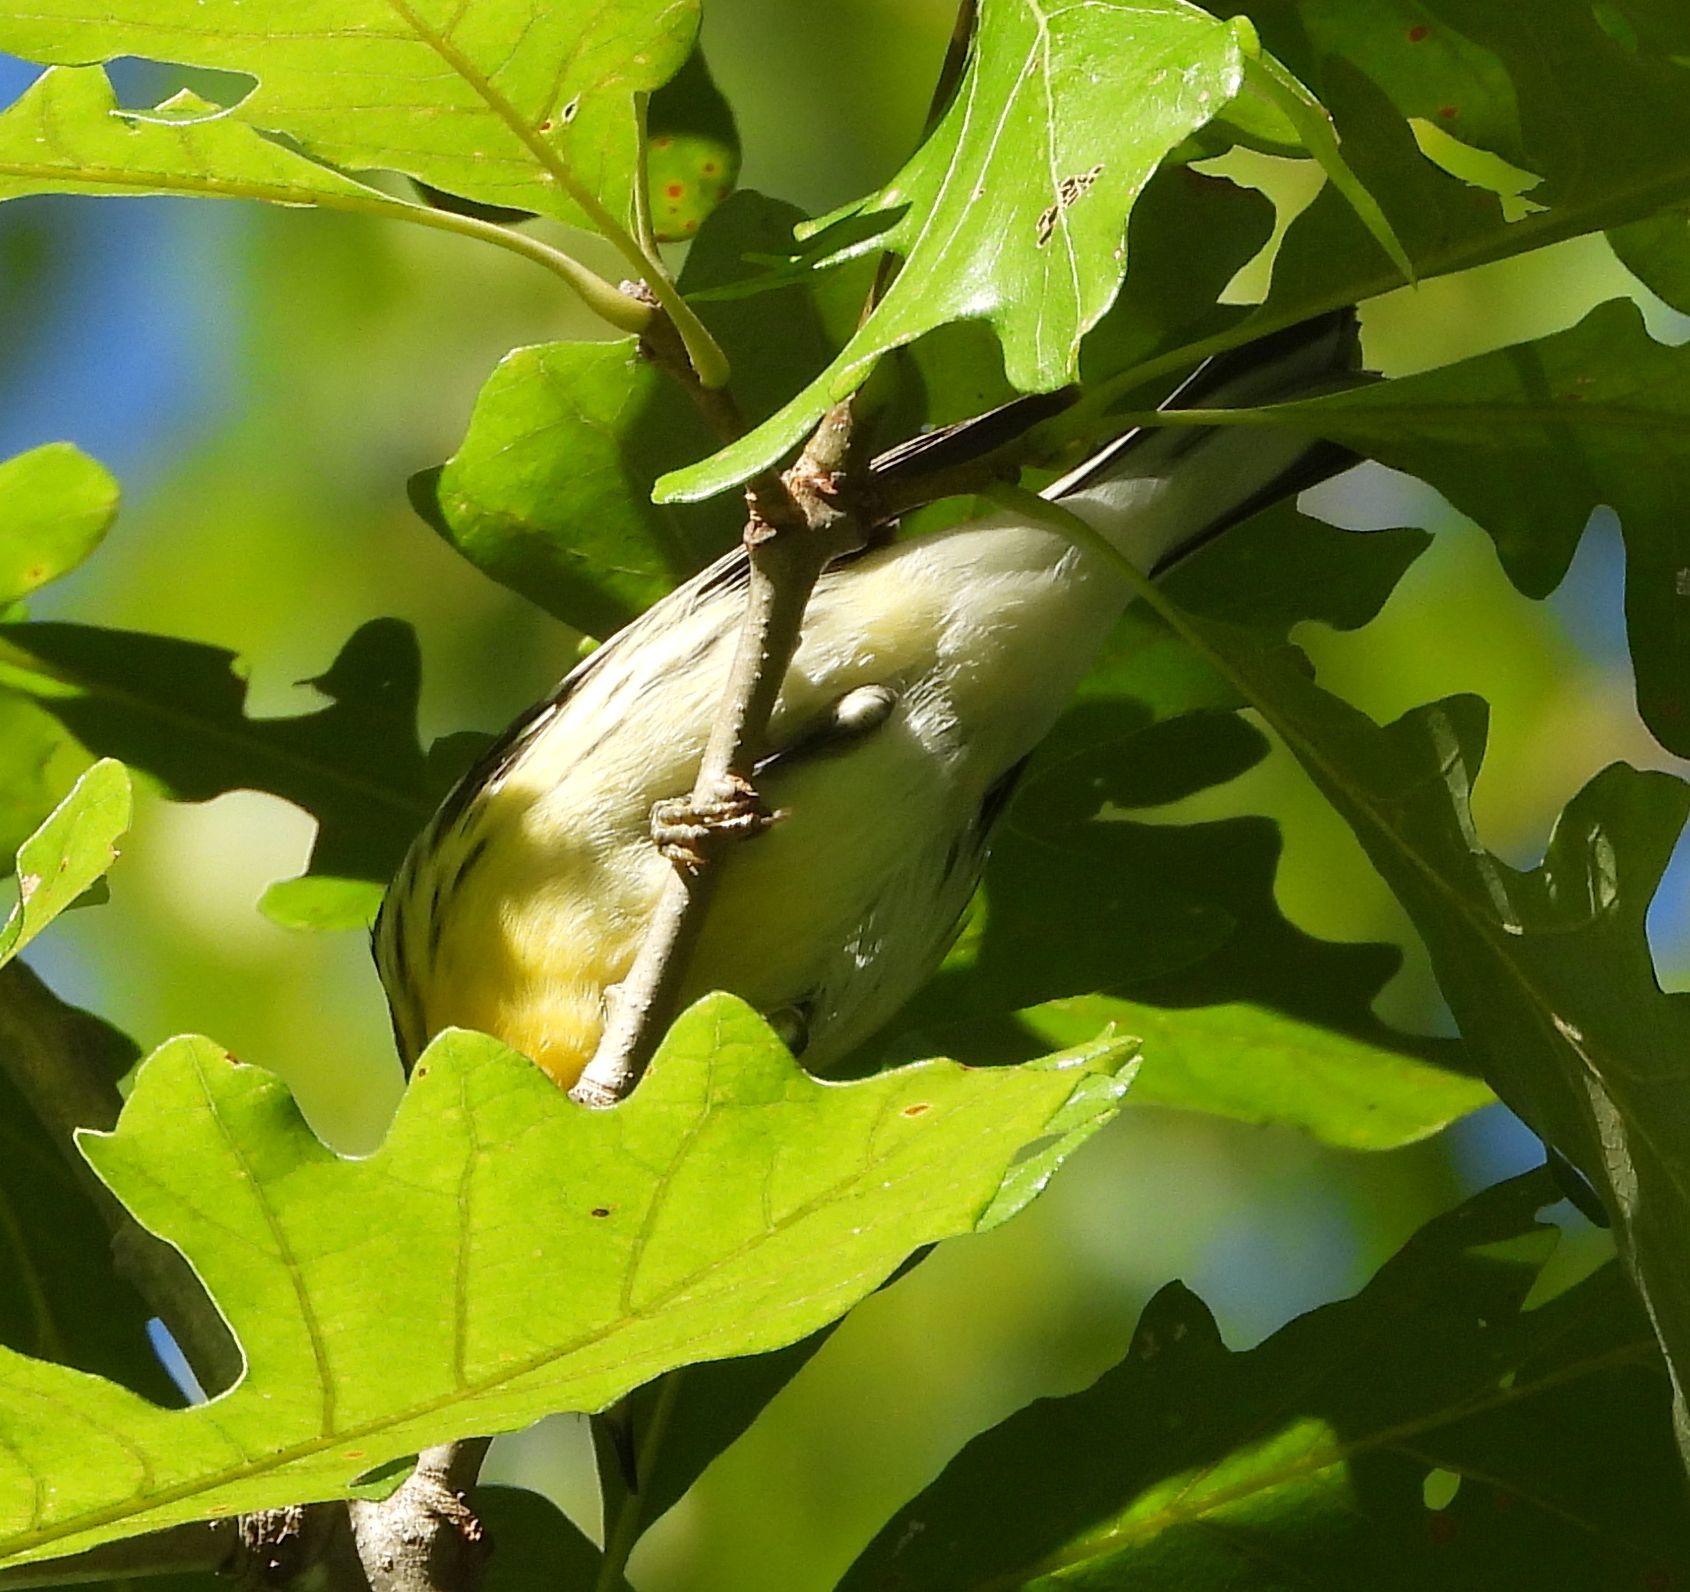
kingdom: Animalia
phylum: Chordata
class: Aves
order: Passeriformes
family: Parulidae
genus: Setophaga
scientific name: Setophaga fusca
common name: Blackburnian warbler
